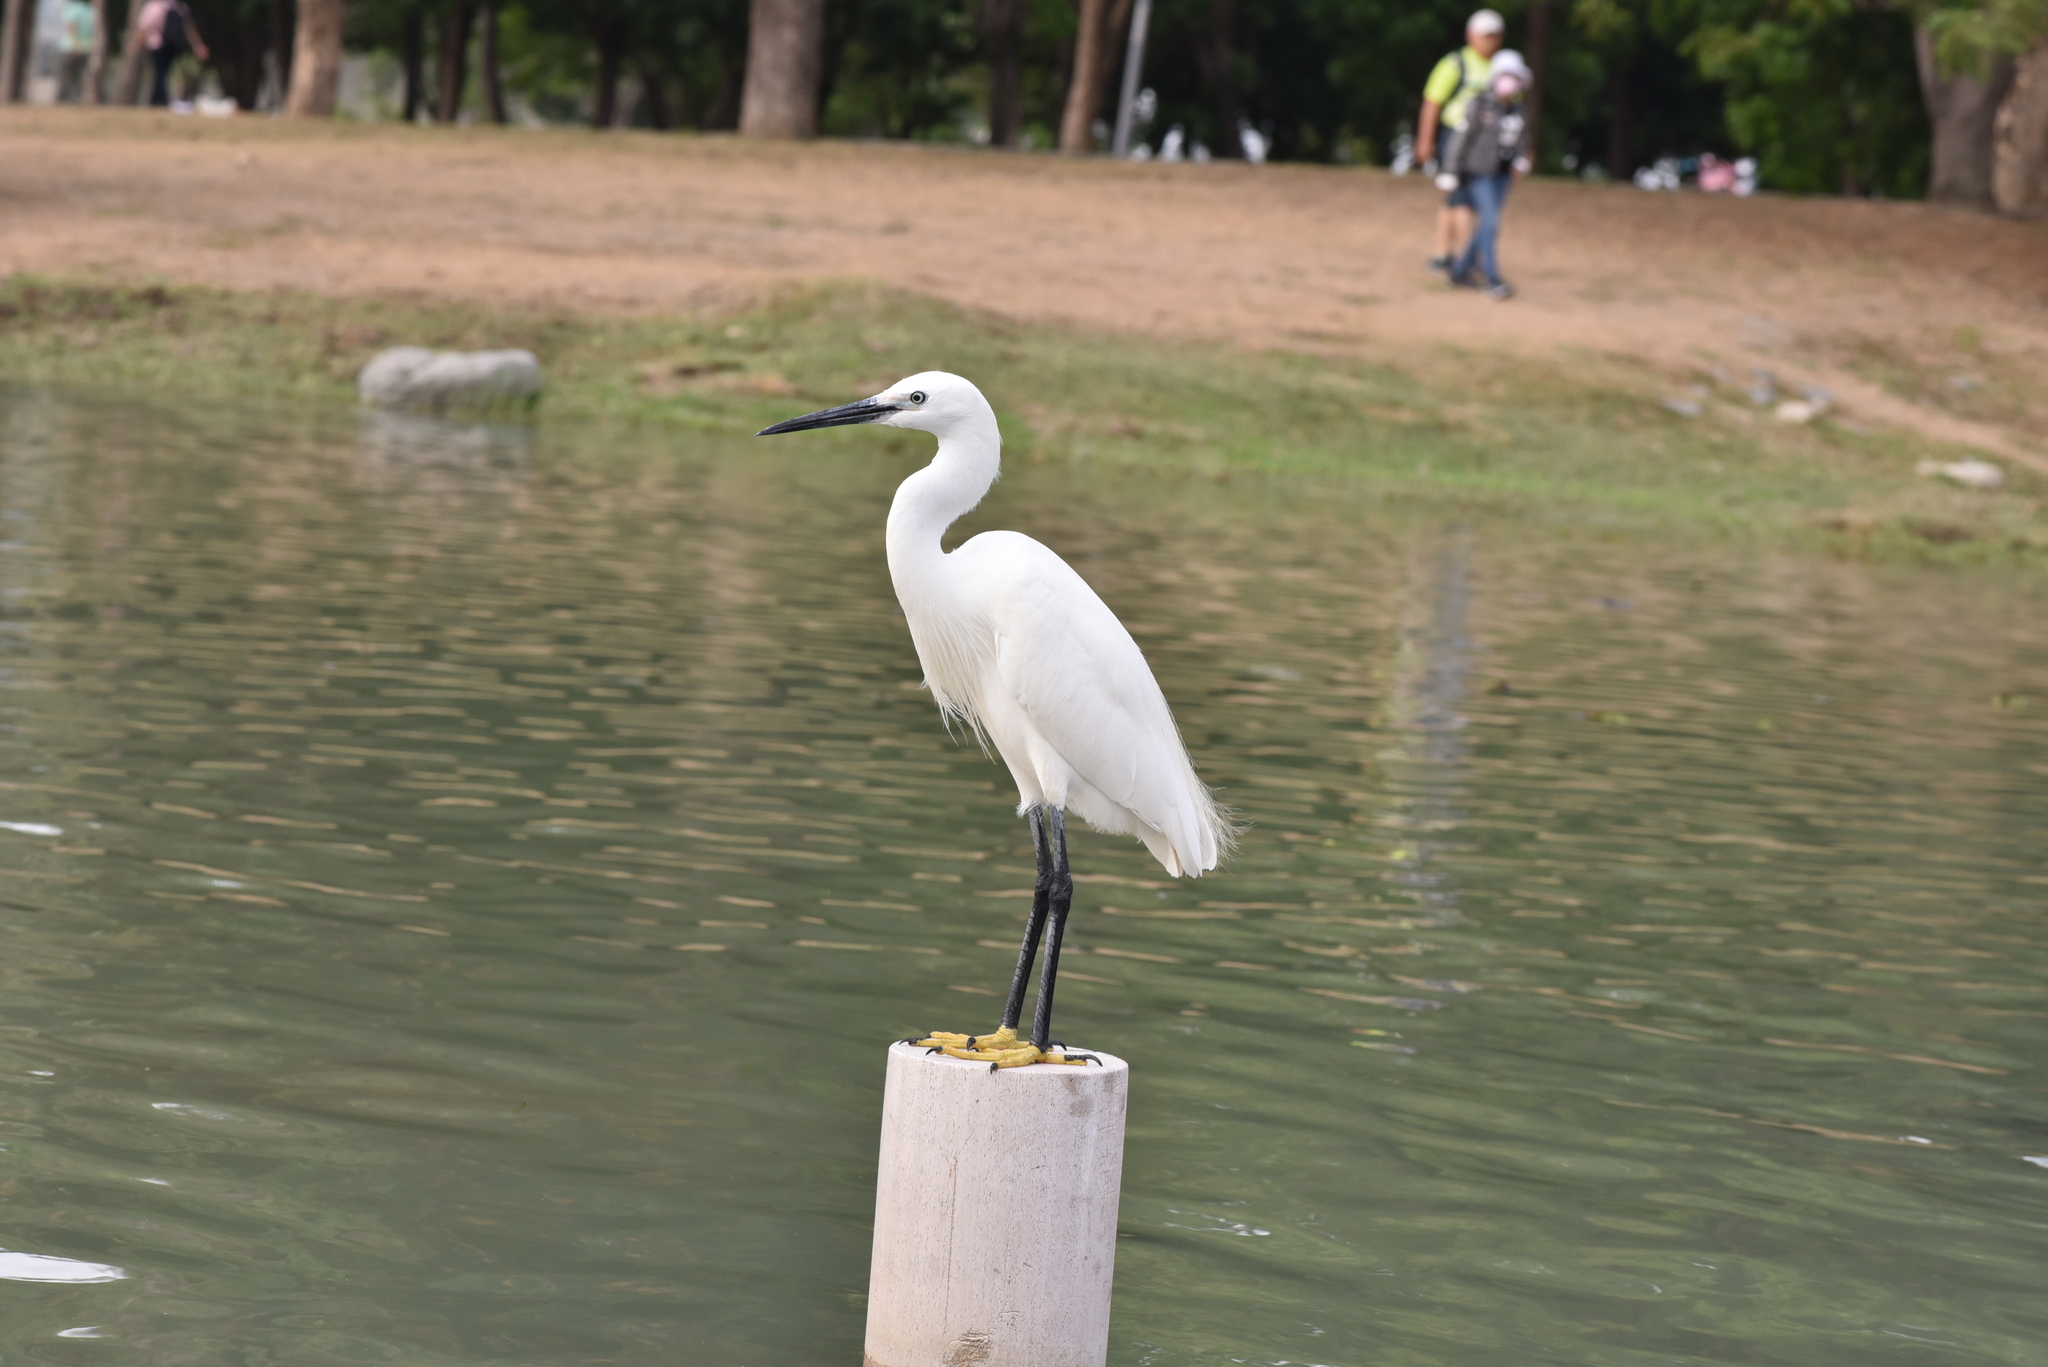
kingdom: Animalia
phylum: Chordata
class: Aves
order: Pelecaniformes
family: Ardeidae
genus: Egretta
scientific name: Egretta garzetta
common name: Little egret
